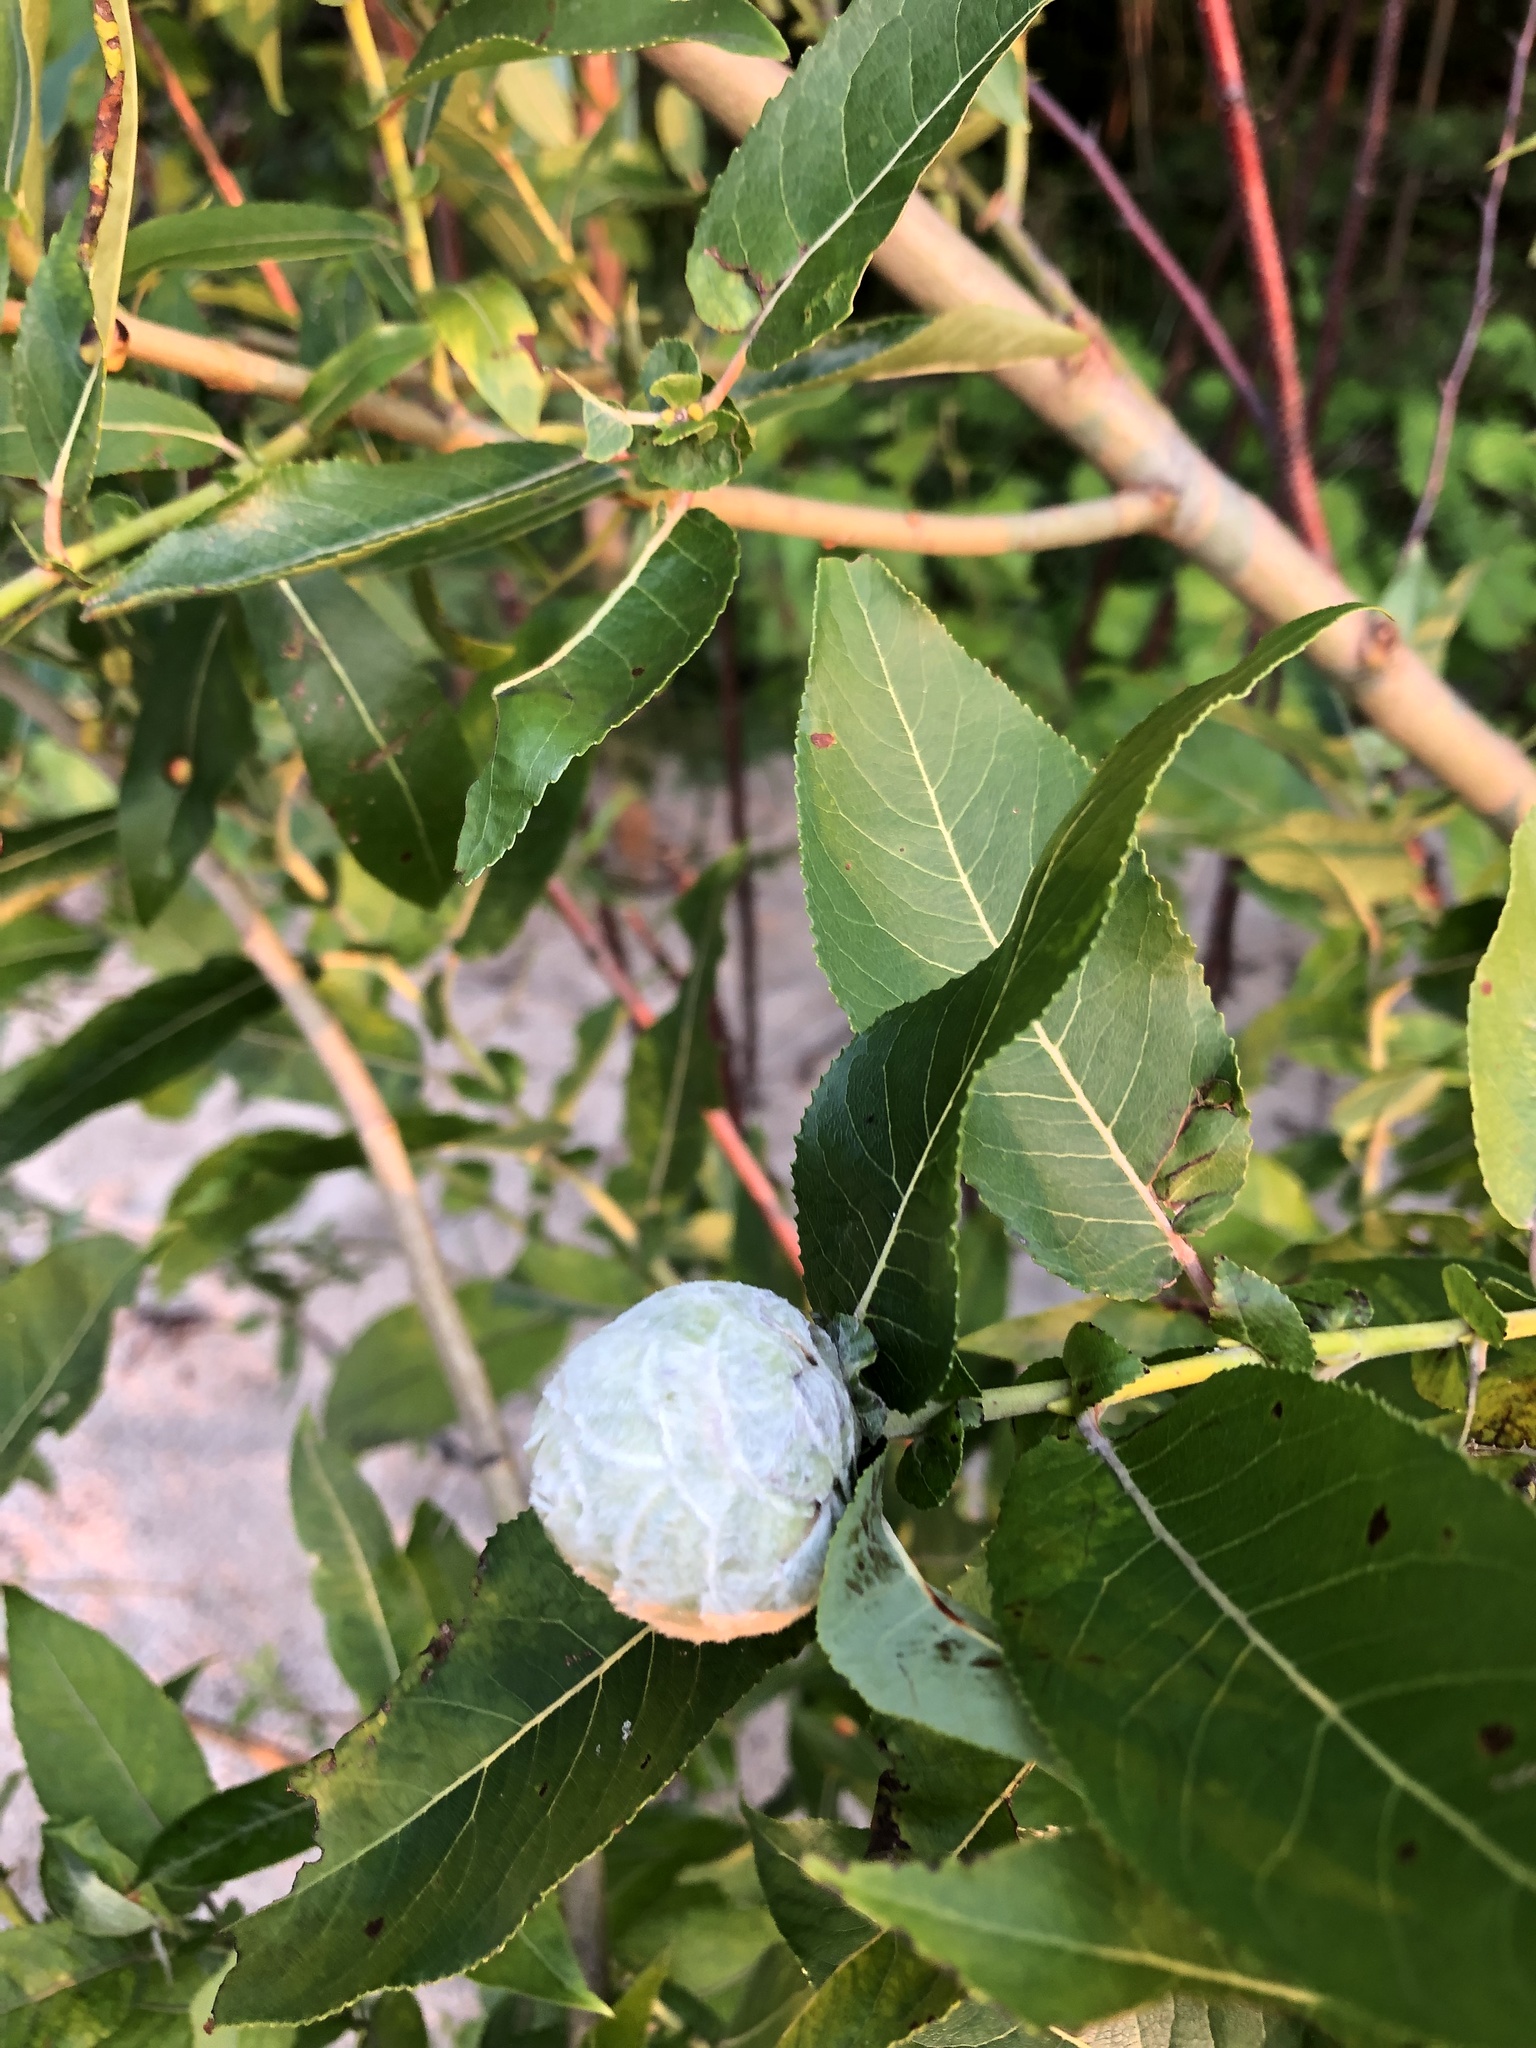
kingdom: Animalia
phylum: Arthropoda
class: Insecta
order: Diptera
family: Cecidomyiidae
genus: Rabdophaga
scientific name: Rabdophaga strobiloides
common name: Willow pinecone gall midge
